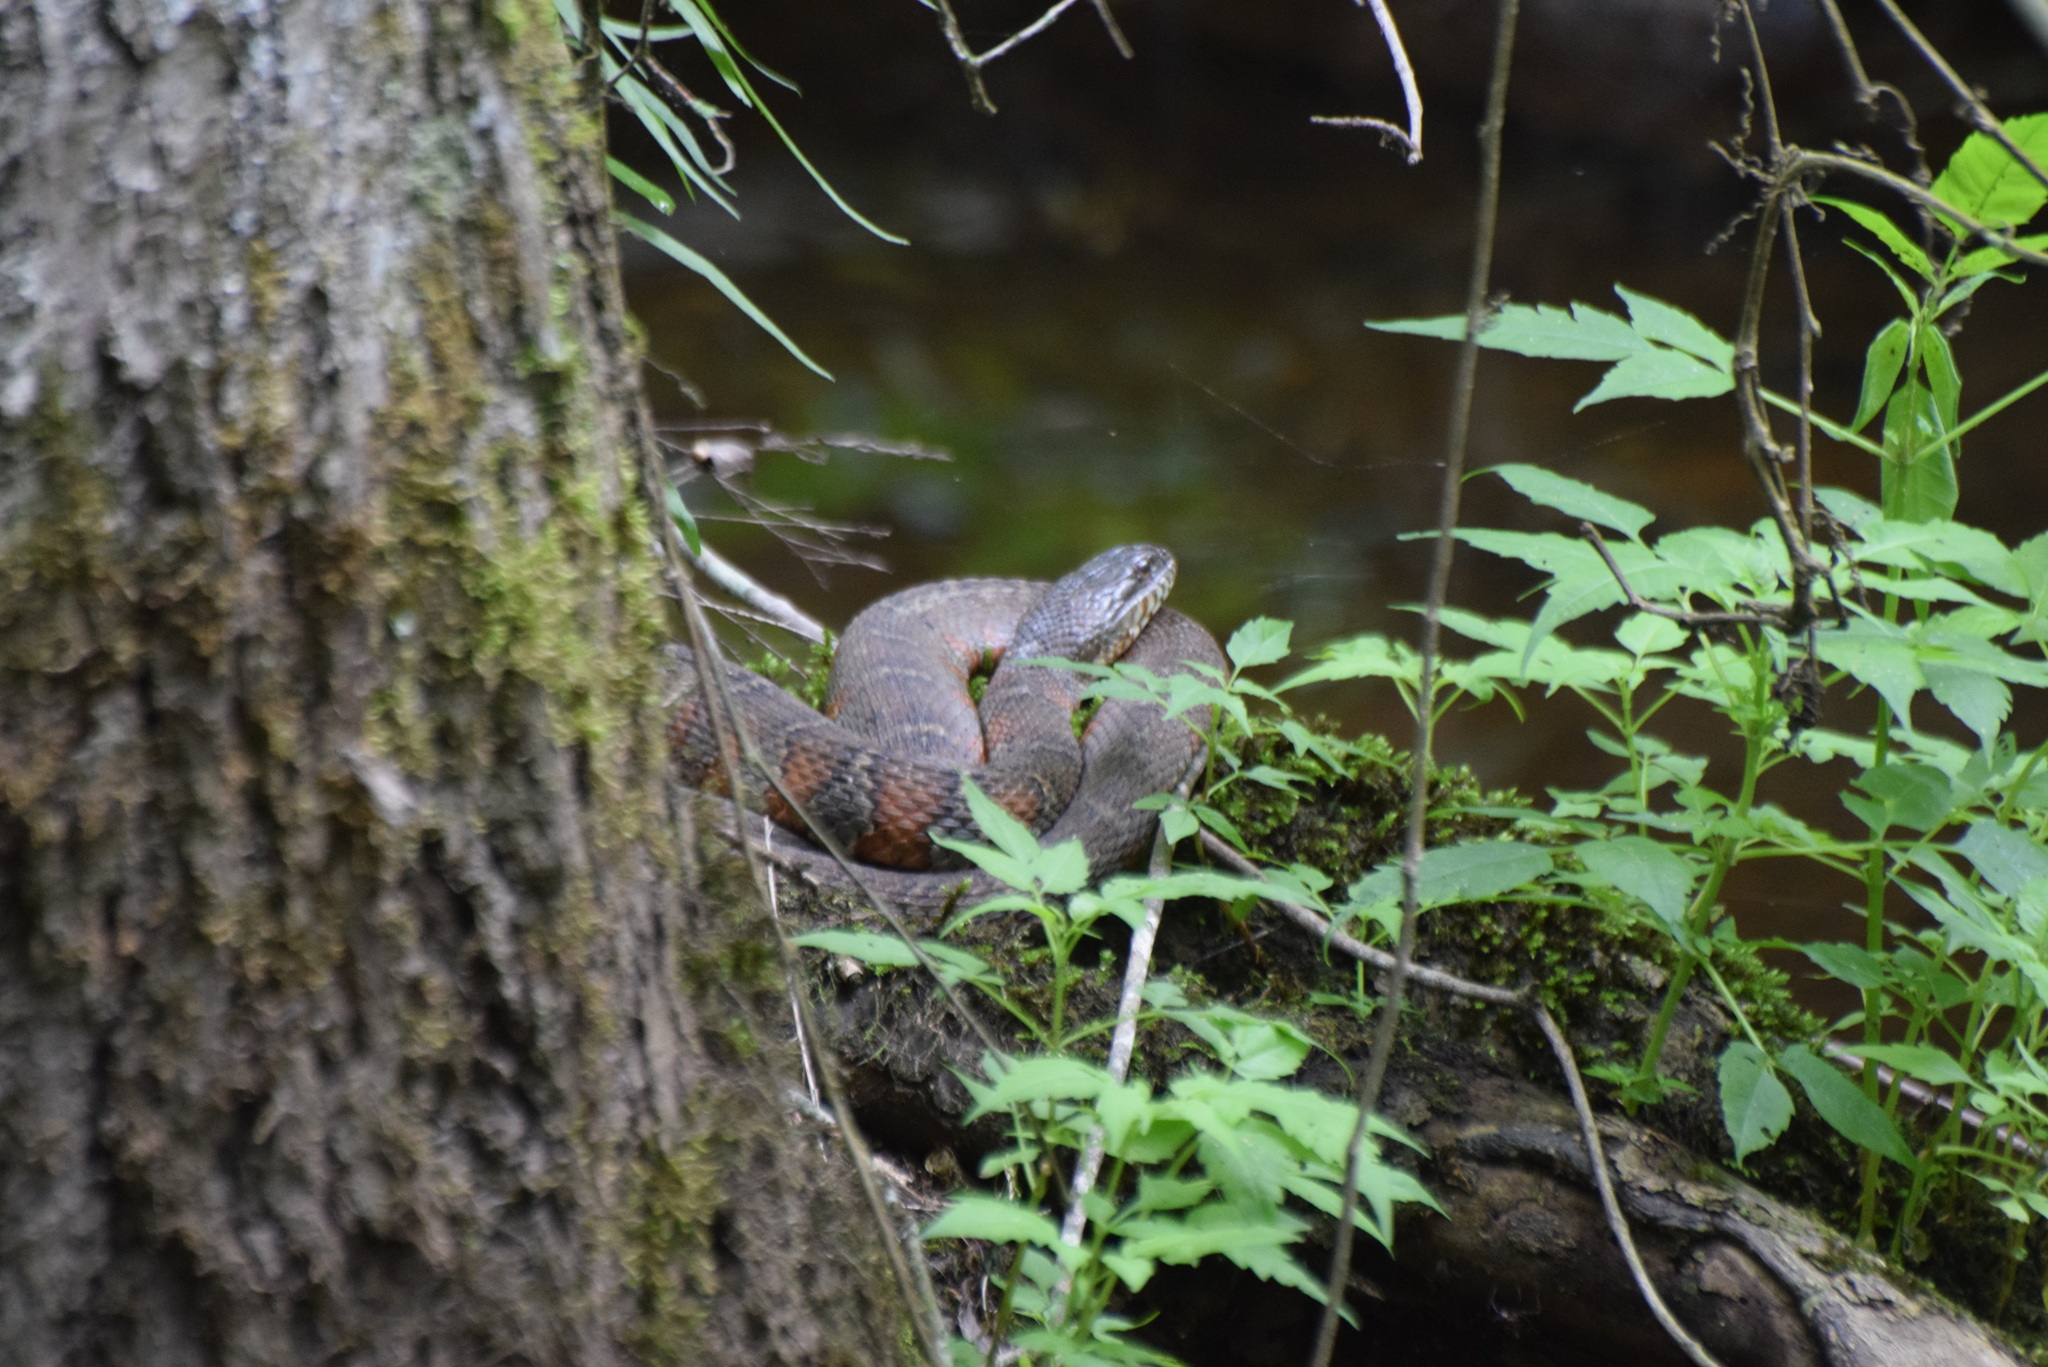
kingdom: Animalia
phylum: Chordata
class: Squamata
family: Colubridae
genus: Nerodia
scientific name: Nerodia sipedon
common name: Northern water snake
